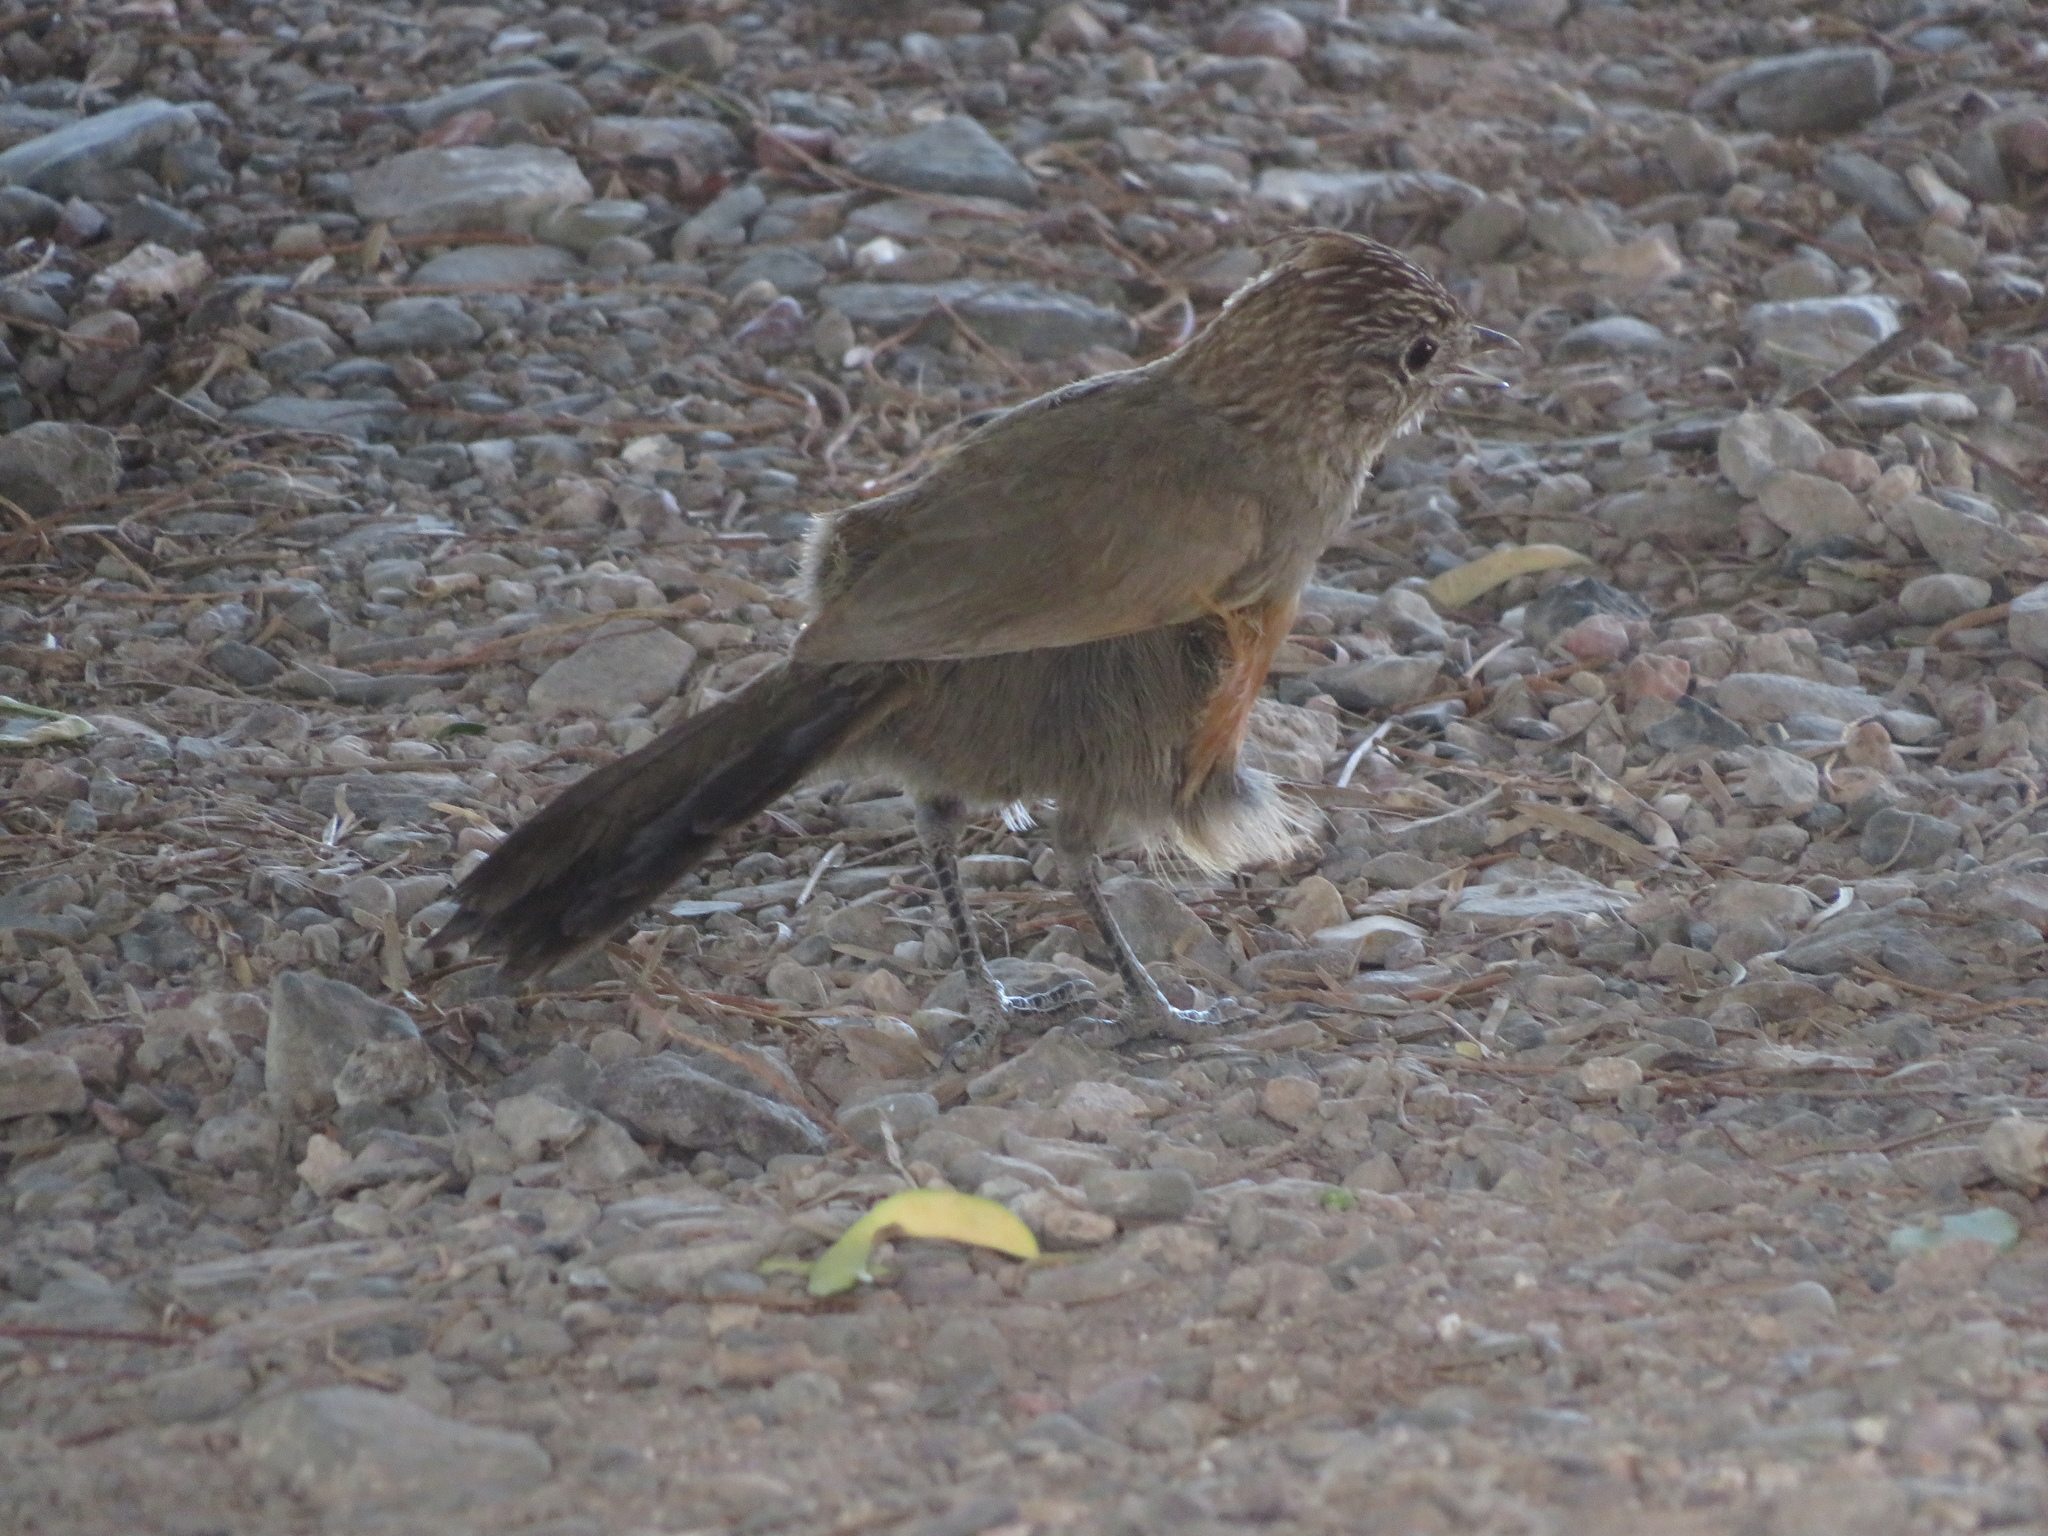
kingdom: Animalia
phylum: Chordata
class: Aves
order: Passeriformes
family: Rhinocryptidae
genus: Rhinocrypta
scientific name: Rhinocrypta lanceolata
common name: Crested gallito
